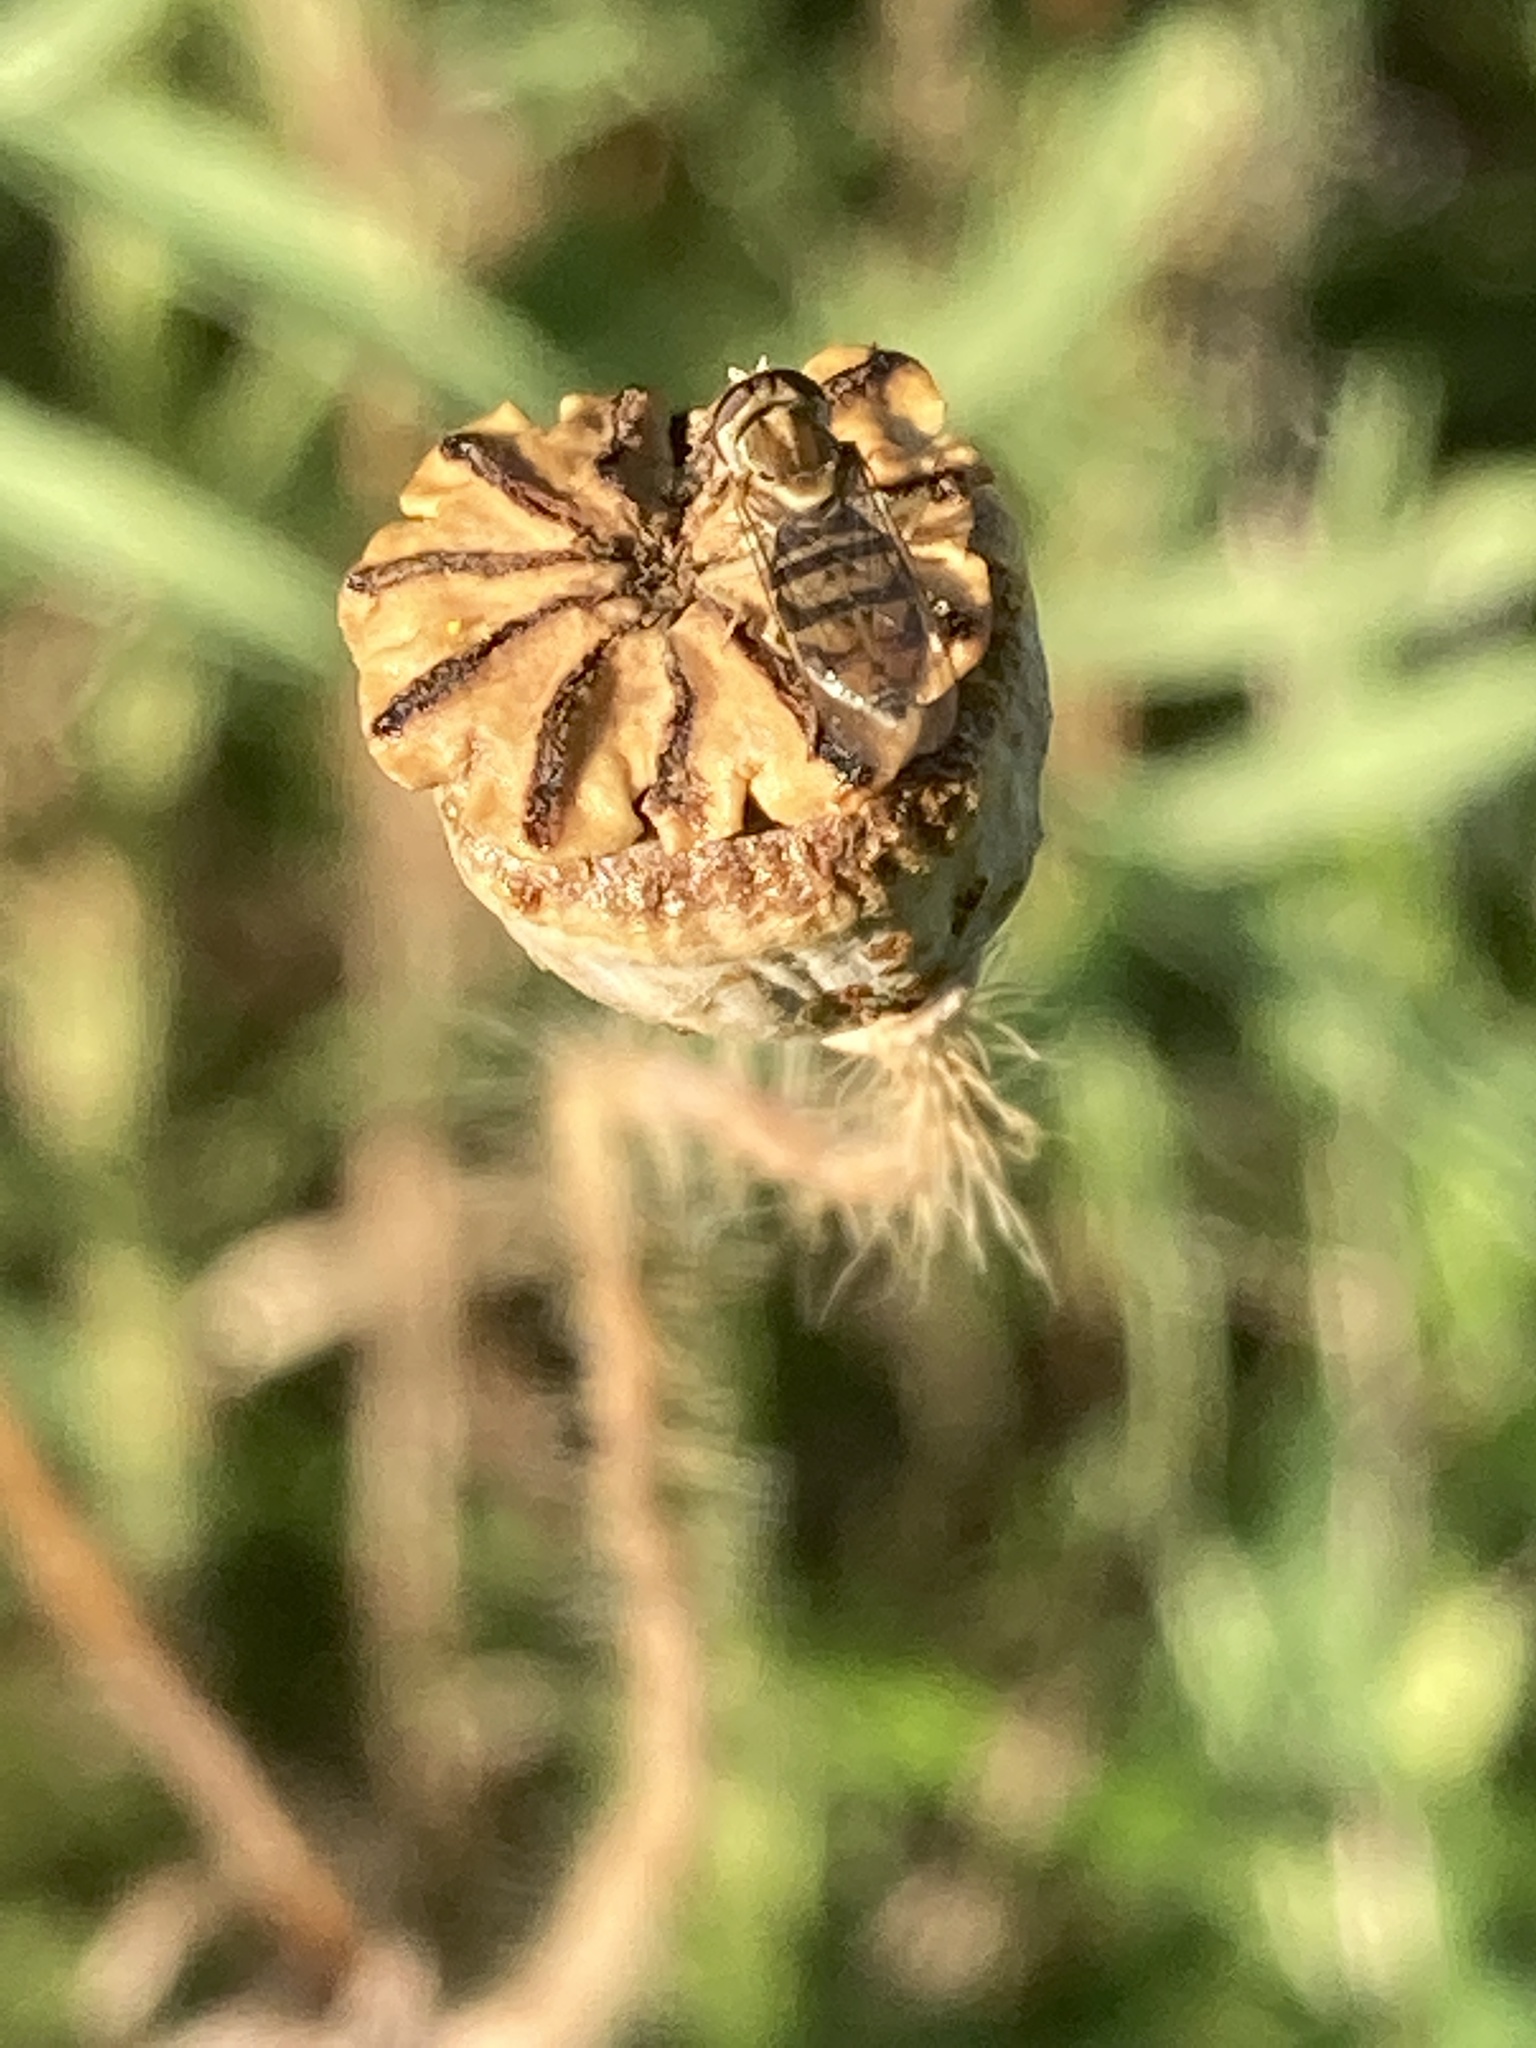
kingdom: Animalia
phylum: Arthropoda
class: Insecta
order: Diptera
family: Syrphidae
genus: Toxomerus
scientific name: Toxomerus marginatus
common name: Syrphid fly
